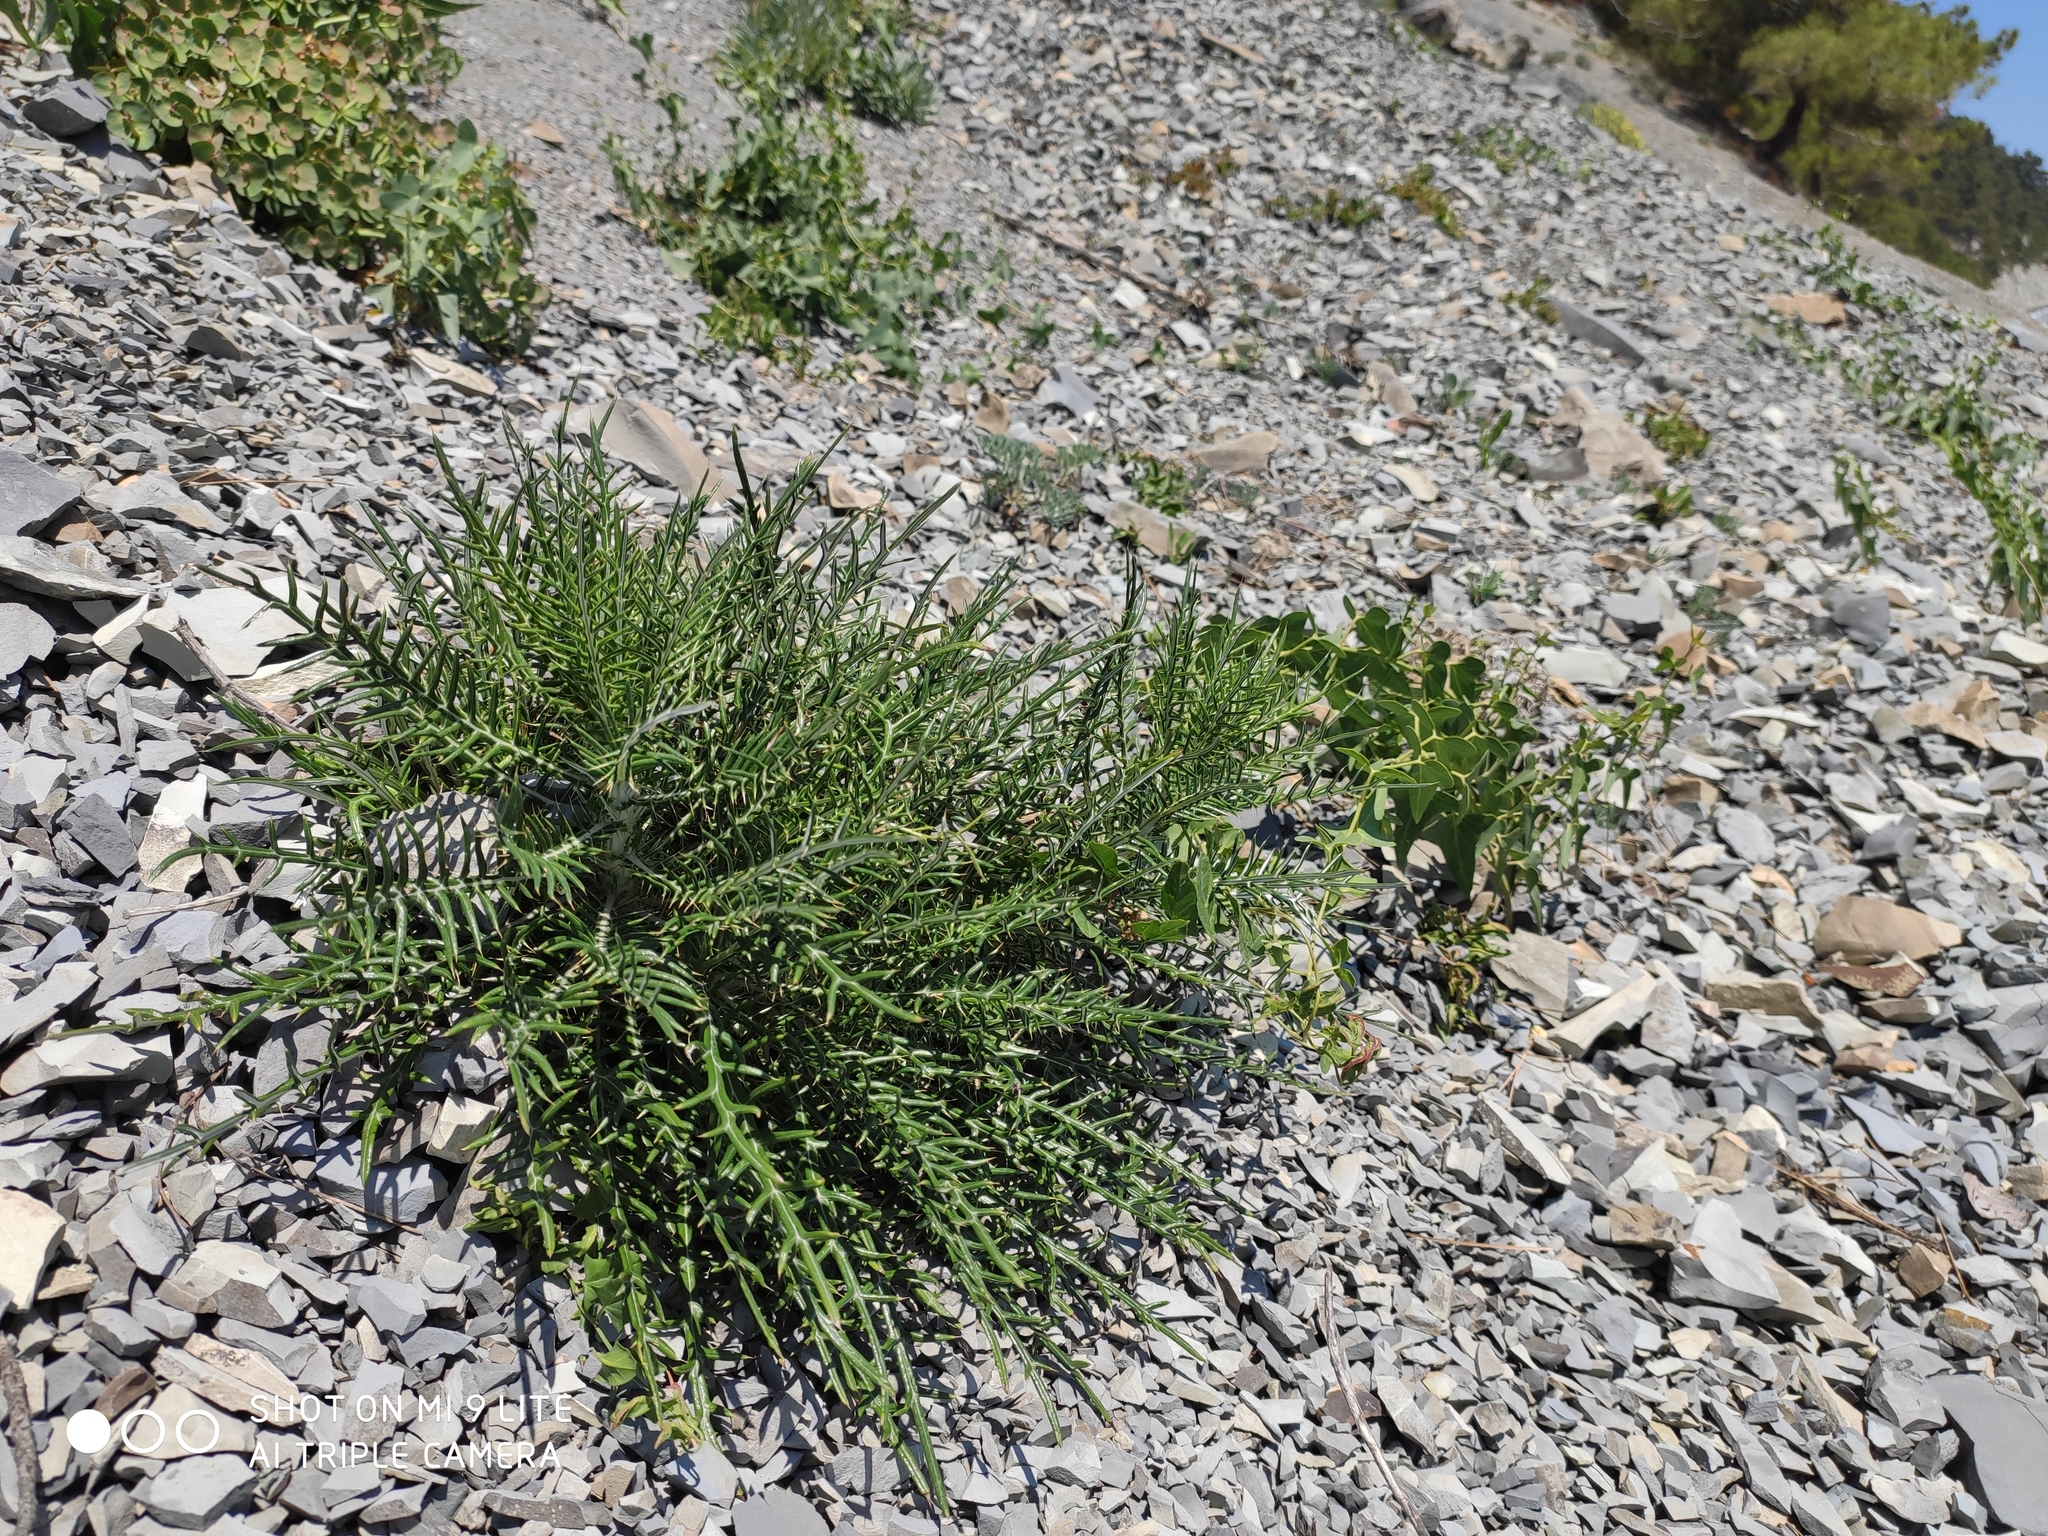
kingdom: Plantae
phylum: Tracheophyta
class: Magnoliopsida
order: Asterales
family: Asteraceae
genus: Ptilostemon
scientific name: Ptilostemon echinocephalus
